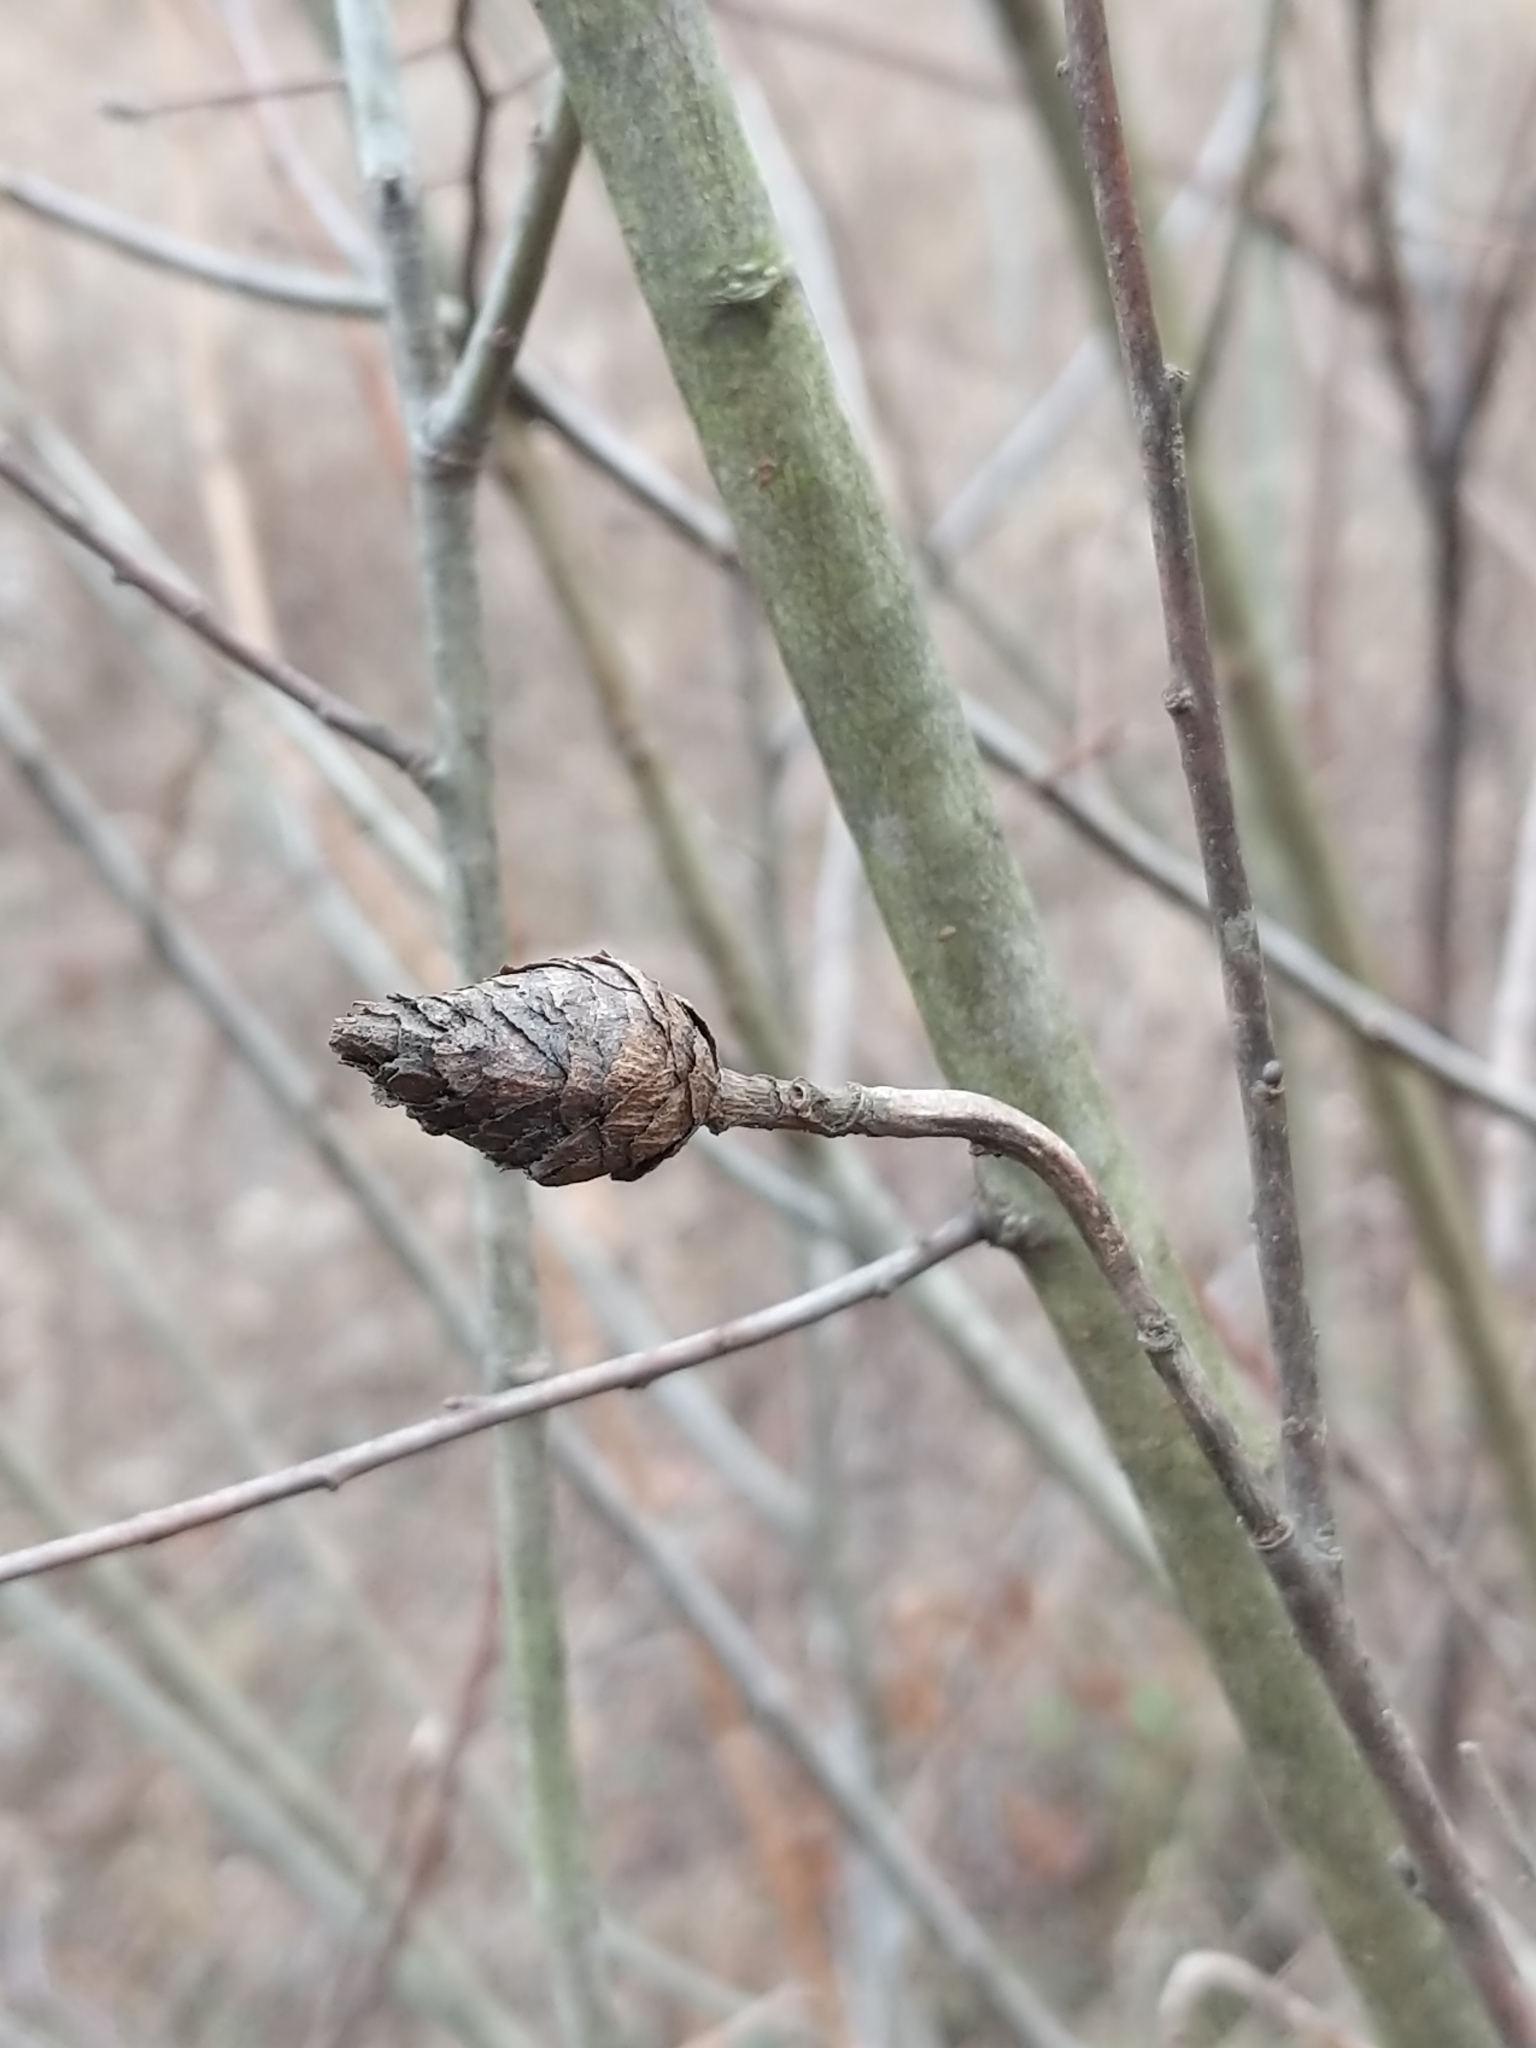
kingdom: Animalia
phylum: Arthropoda
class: Insecta
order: Diptera
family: Cecidomyiidae
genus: Rabdophaga
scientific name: Rabdophaga strobiloides
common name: Willow pinecone gall midge
